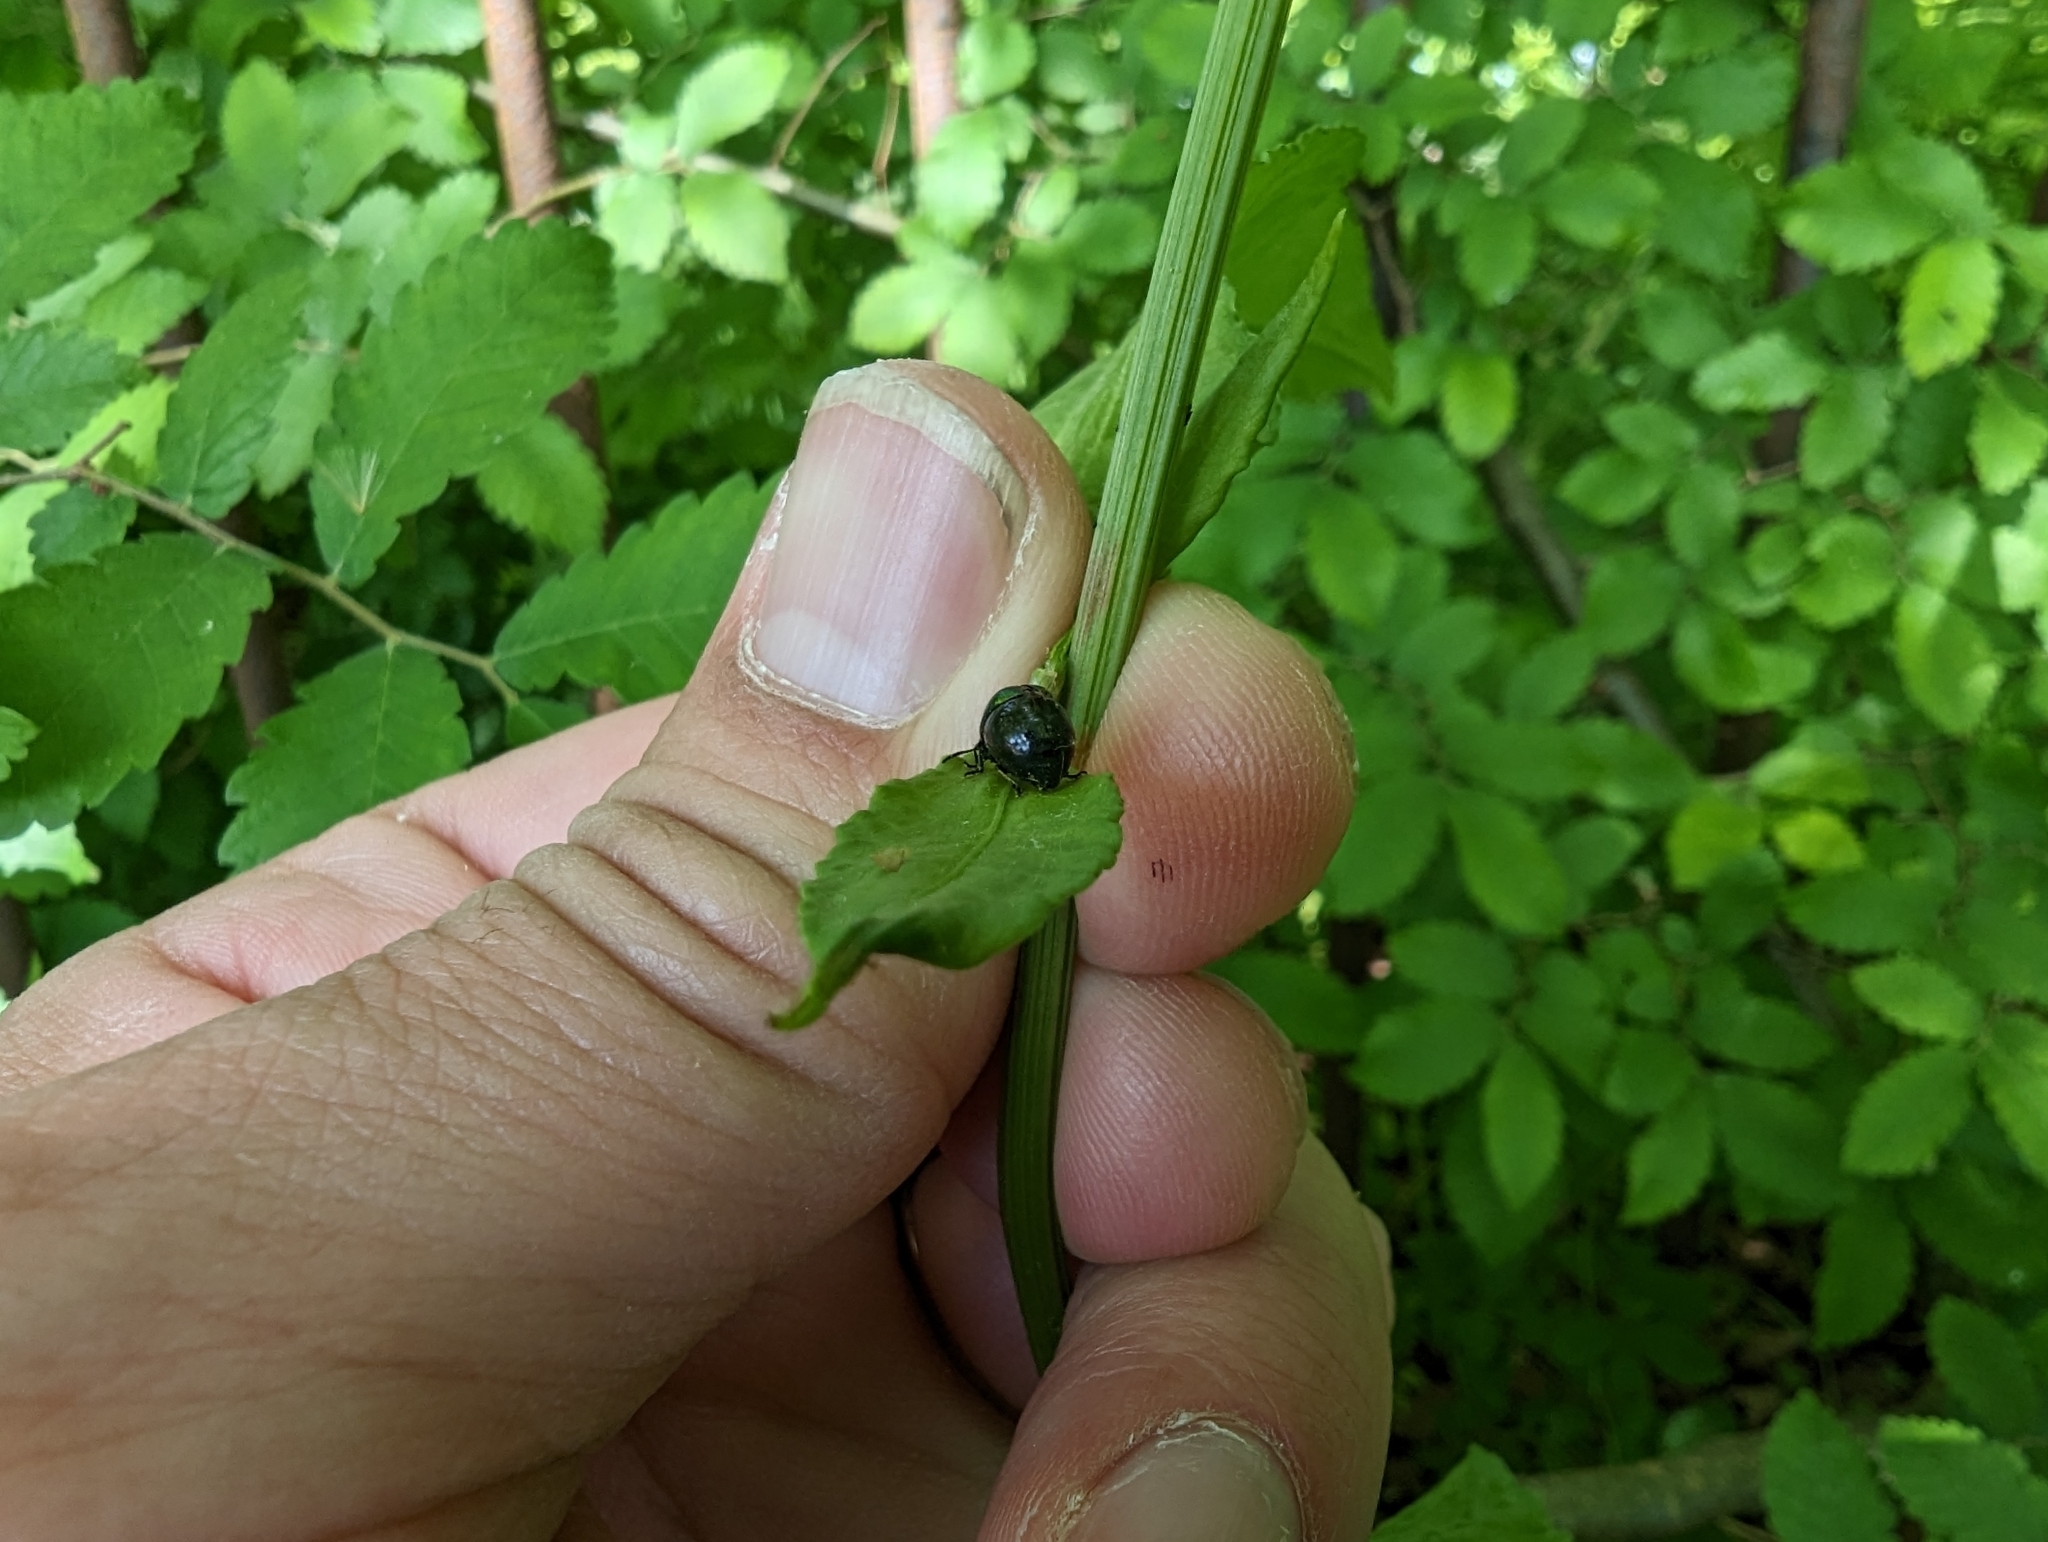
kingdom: Animalia
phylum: Arthropoda
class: Insecta
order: Coleoptera
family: Chrysomelidae
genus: Gastrophysa
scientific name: Gastrophysa viridula
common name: Green dock beetle
